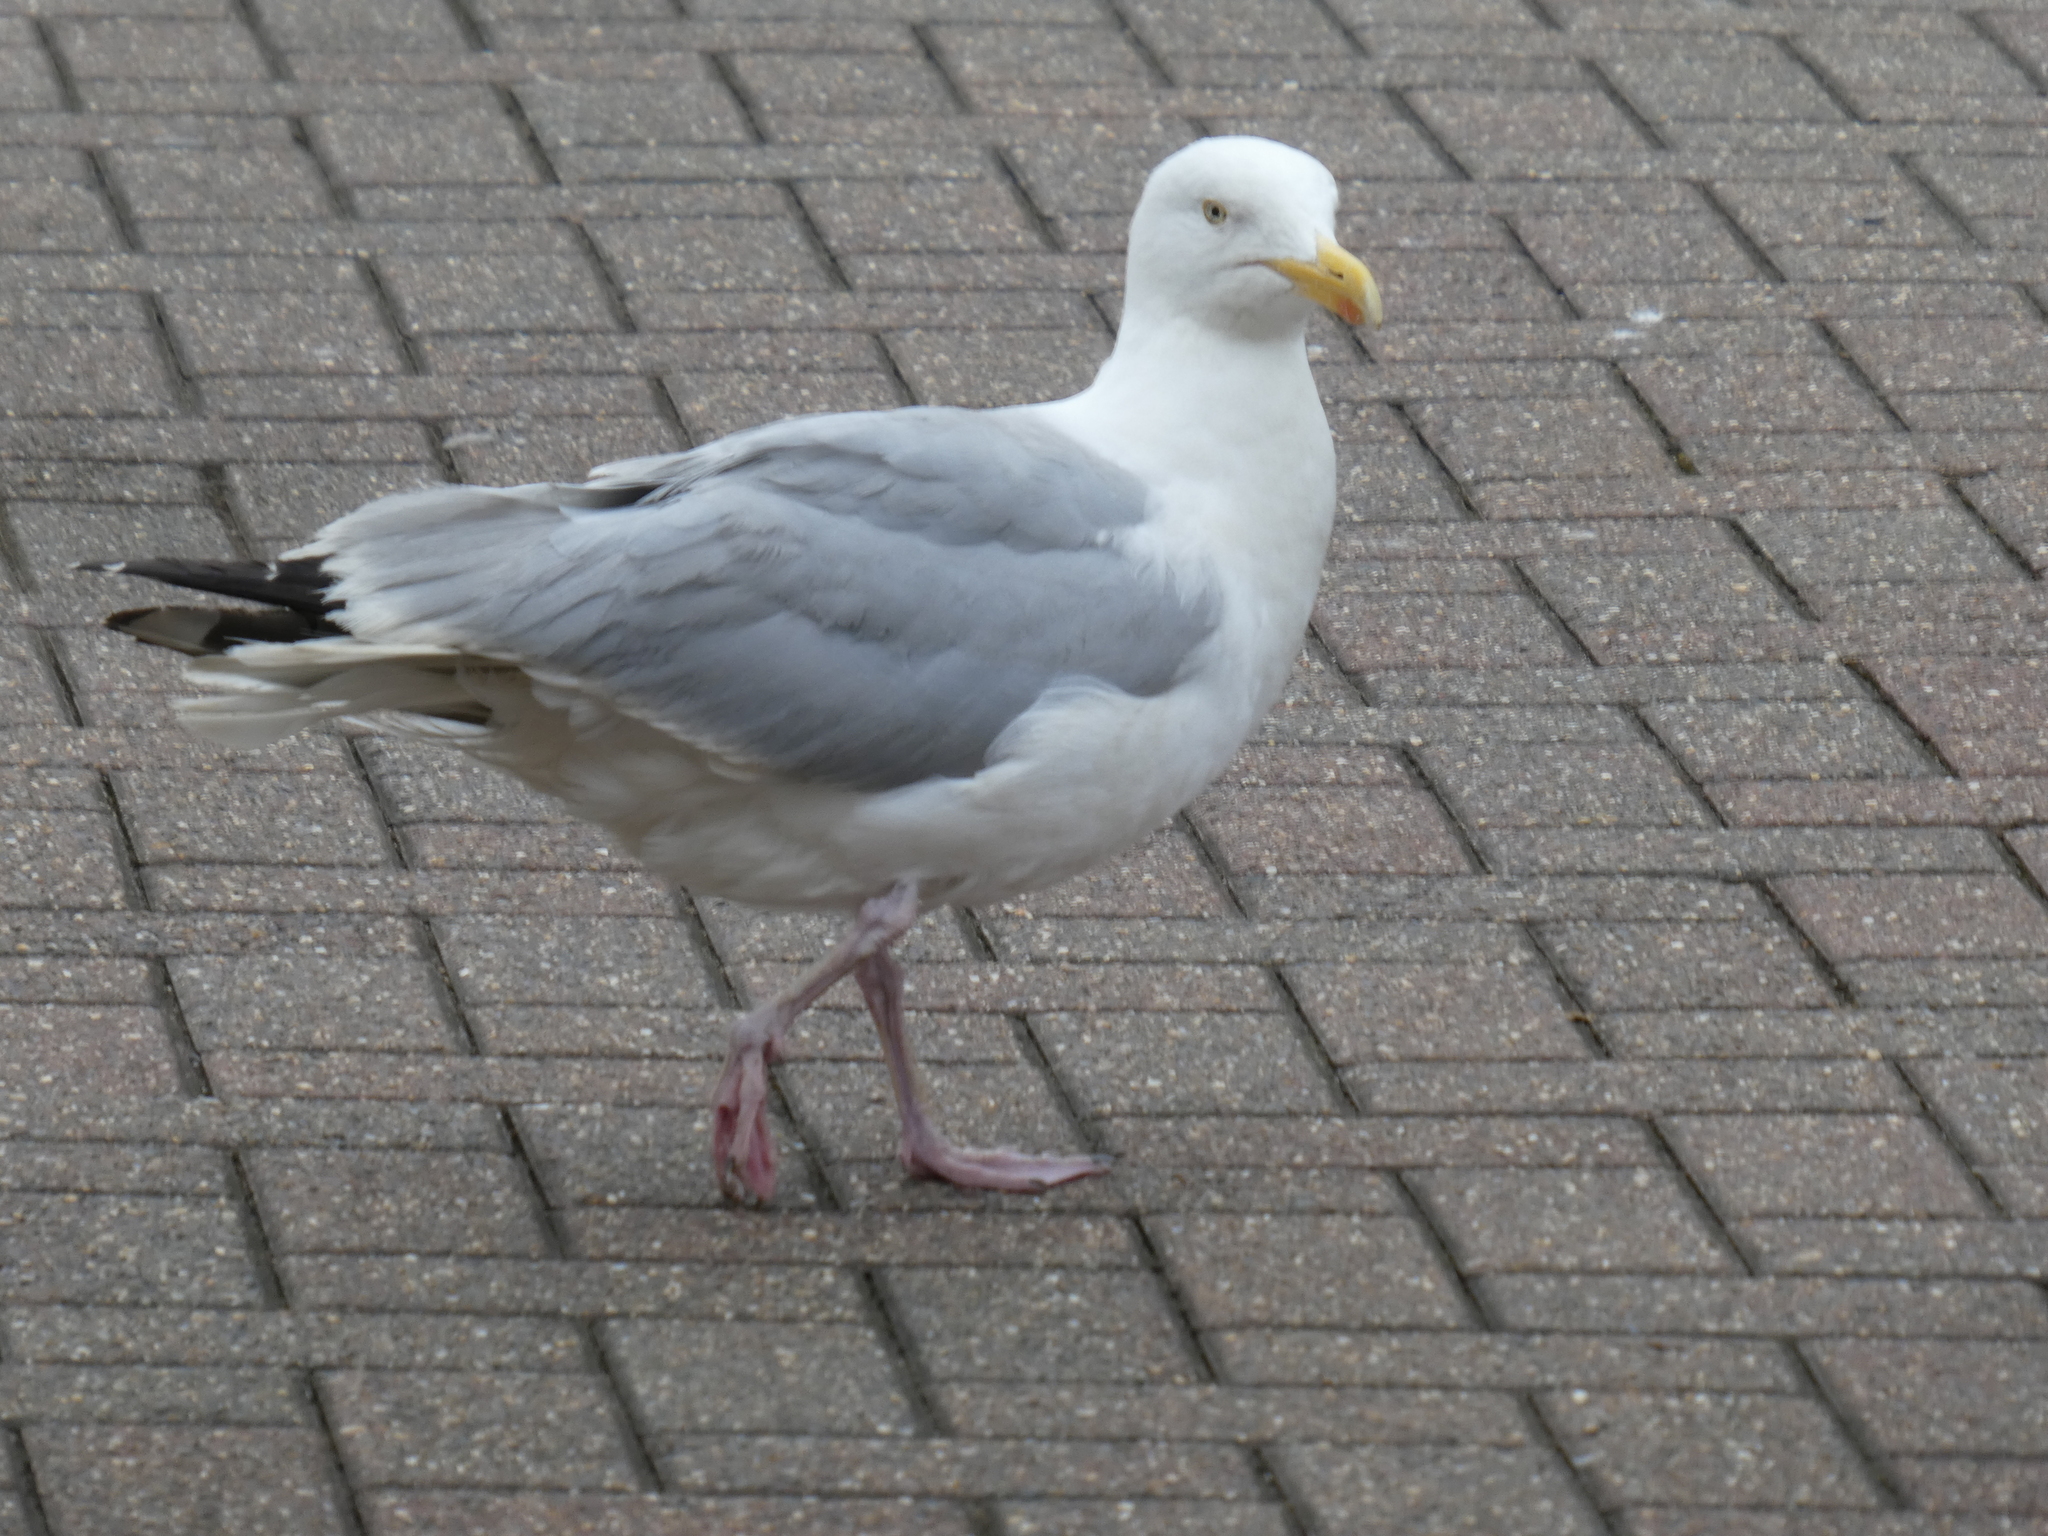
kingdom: Animalia
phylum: Chordata
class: Aves
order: Charadriiformes
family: Laridae
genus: Larus
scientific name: Larus argentatus
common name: Herring gull
